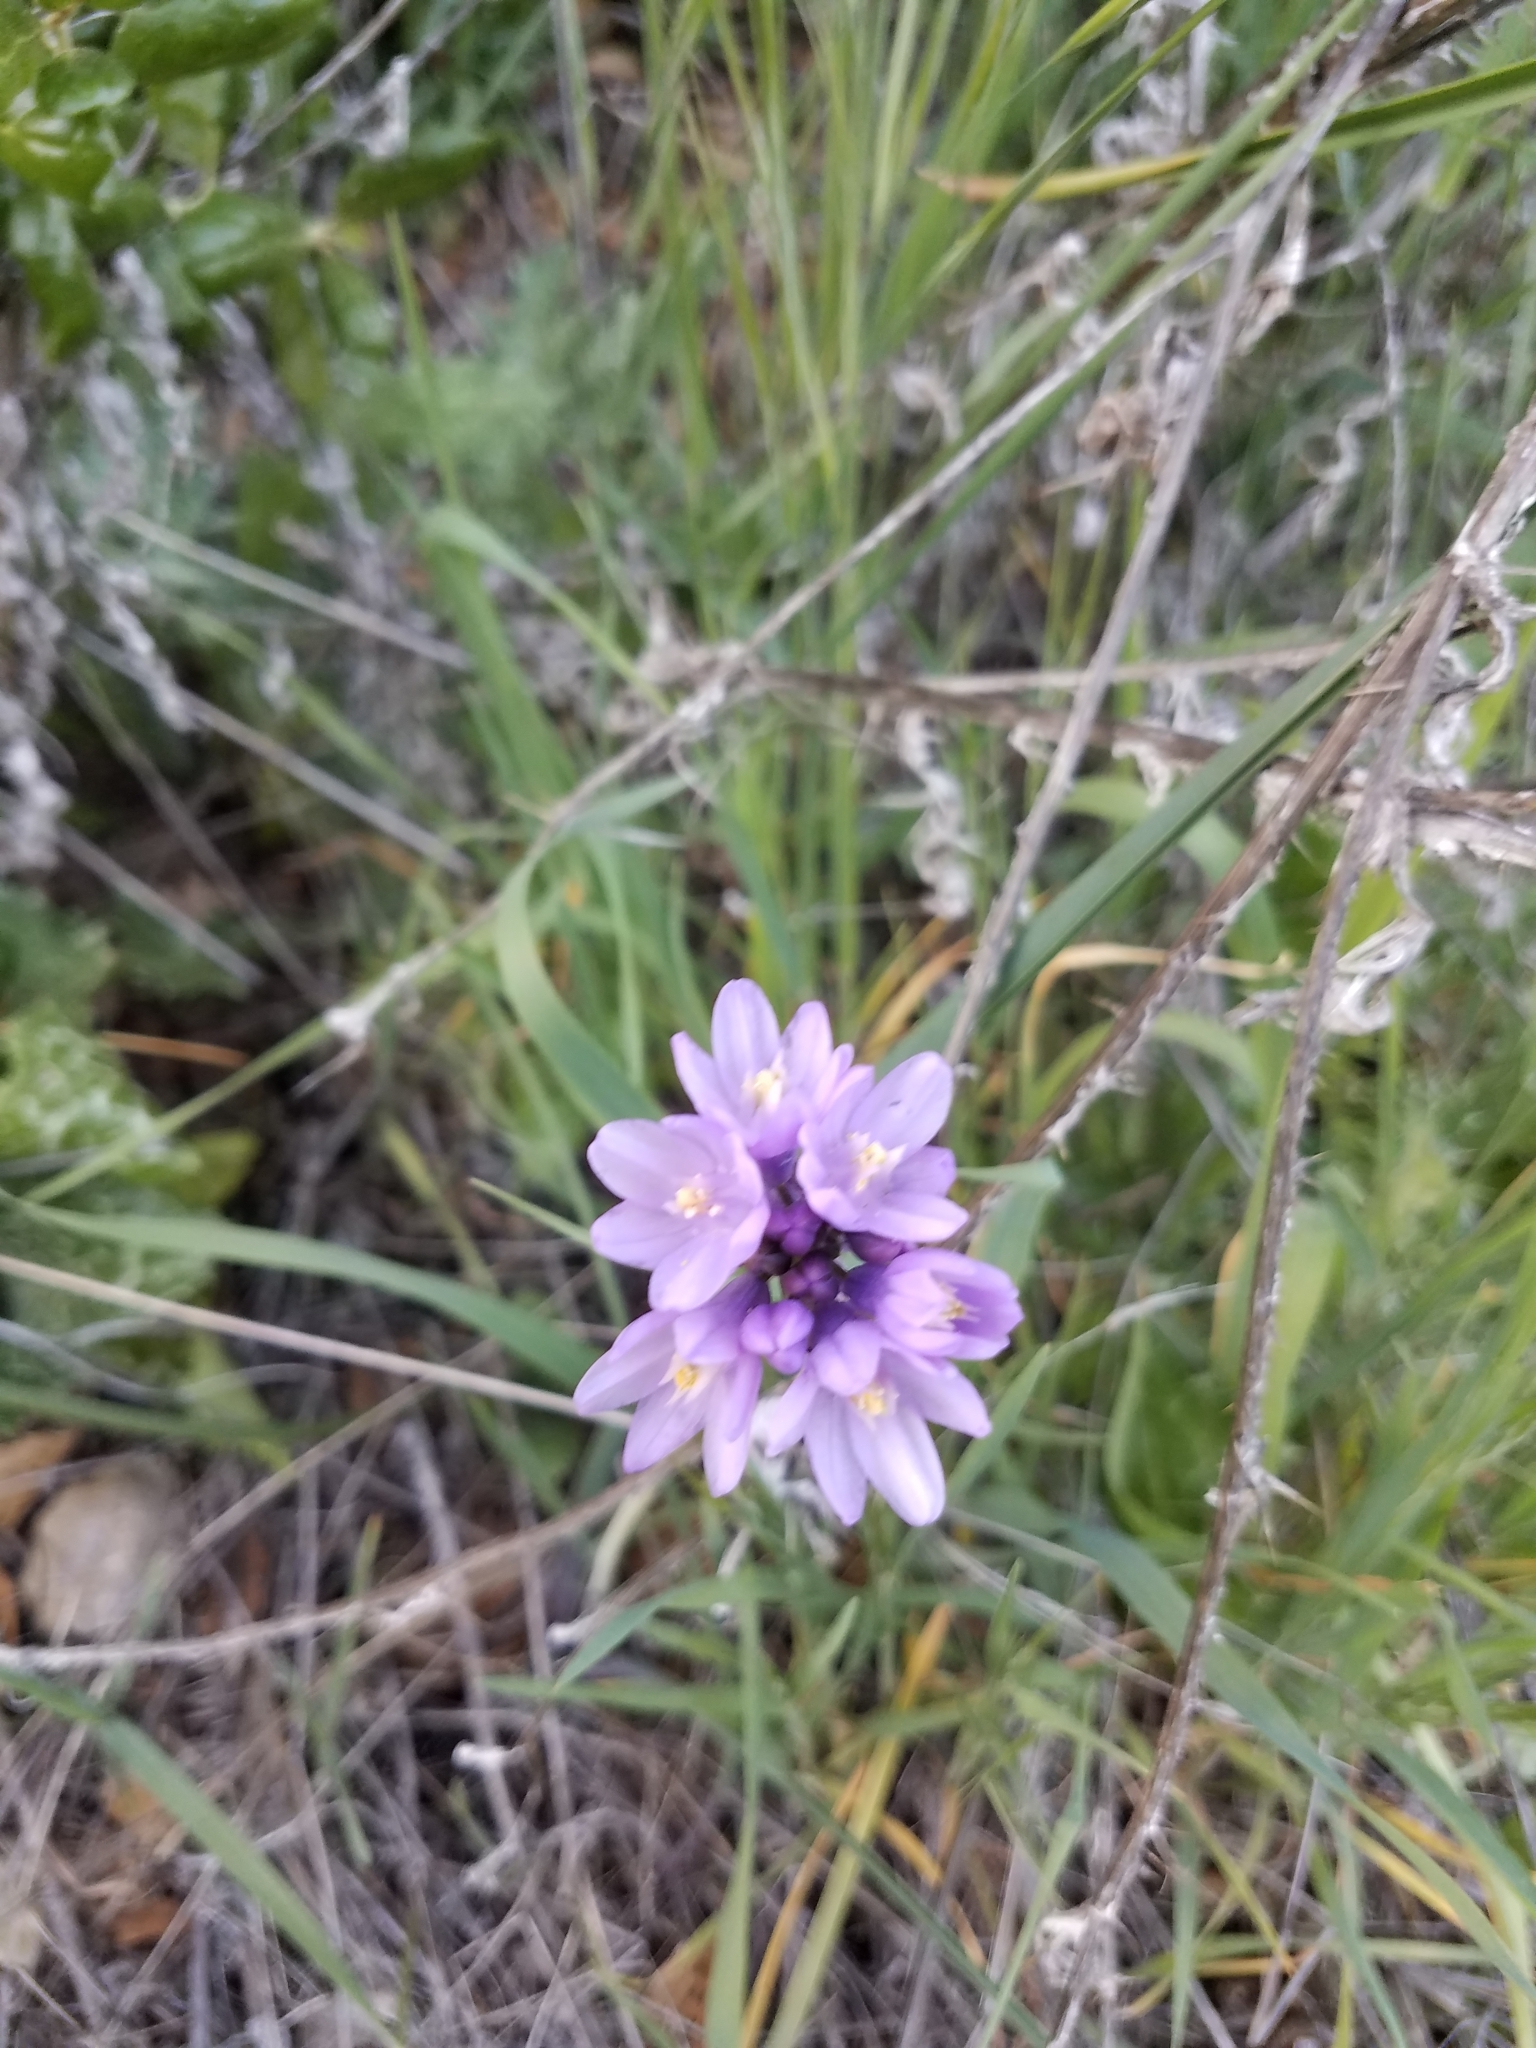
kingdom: Plantae
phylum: Tracheophyta
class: Liliopsida
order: Asparagales
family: Asparagaceae
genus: Dipterostemon
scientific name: Dipterostemon capitatus
